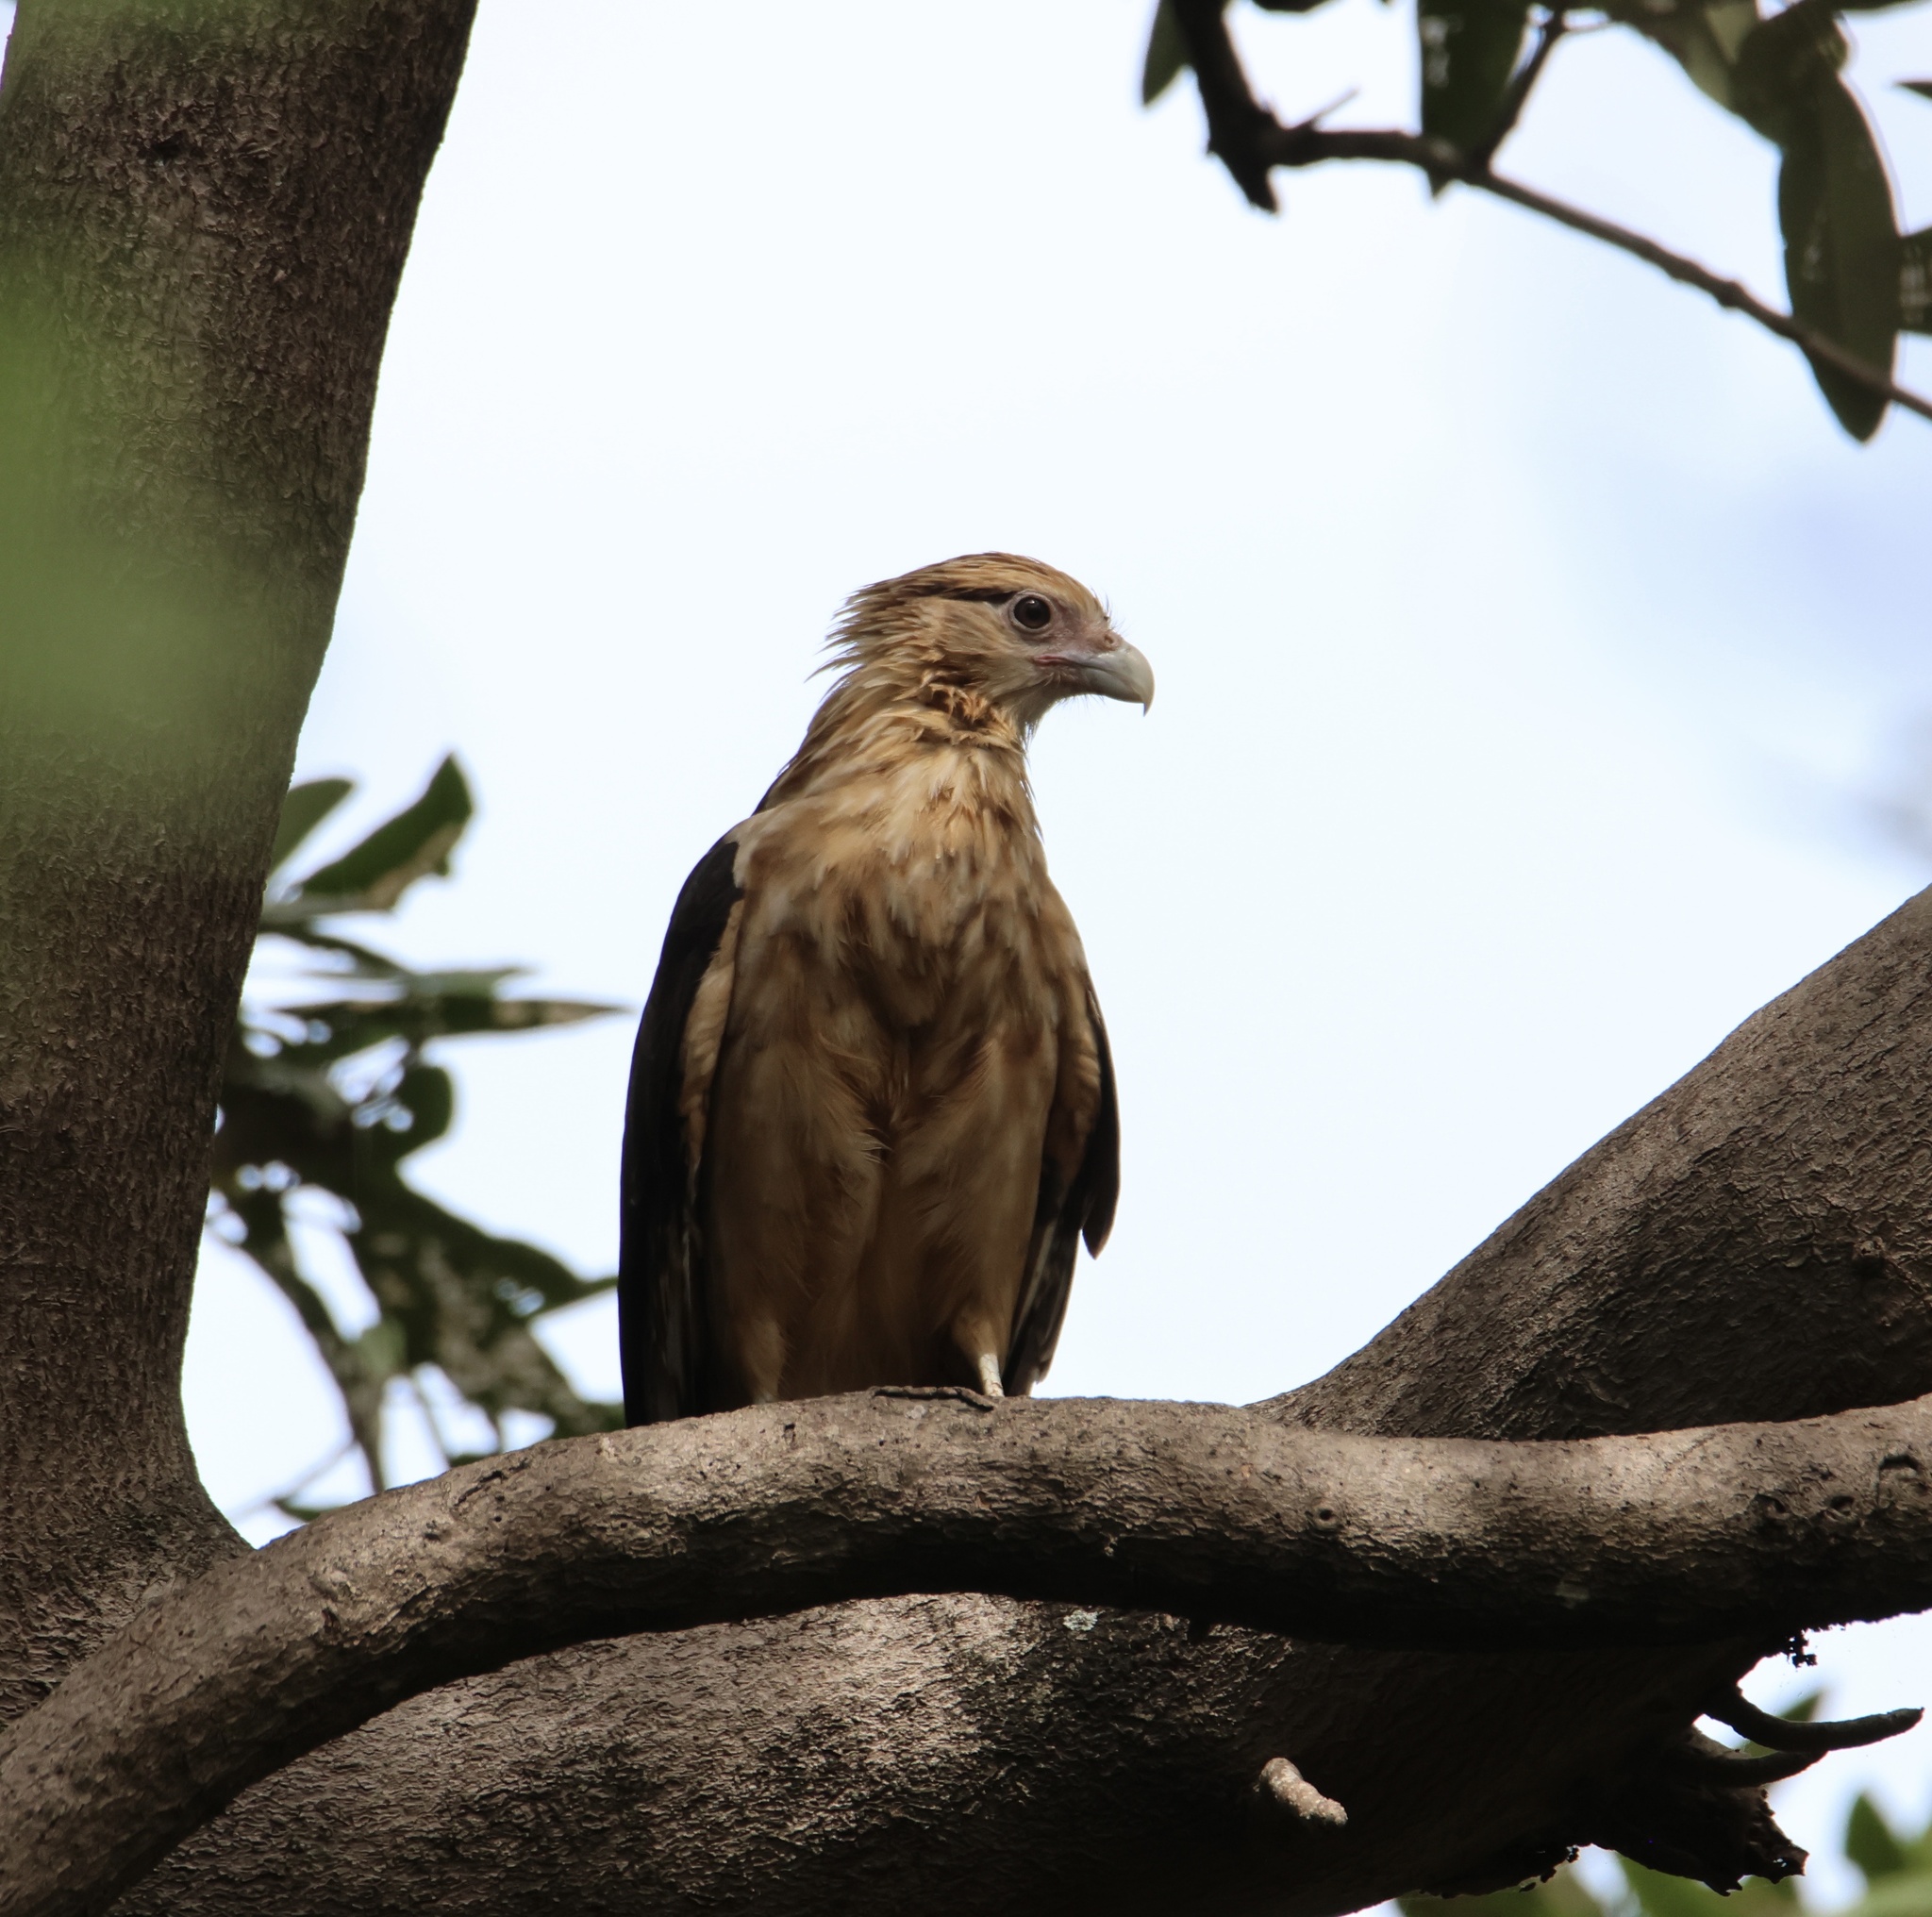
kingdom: Animalia
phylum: Chordata
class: Aves
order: Falconiformes
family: Falconidae
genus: Daptrius
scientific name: Daptrius
